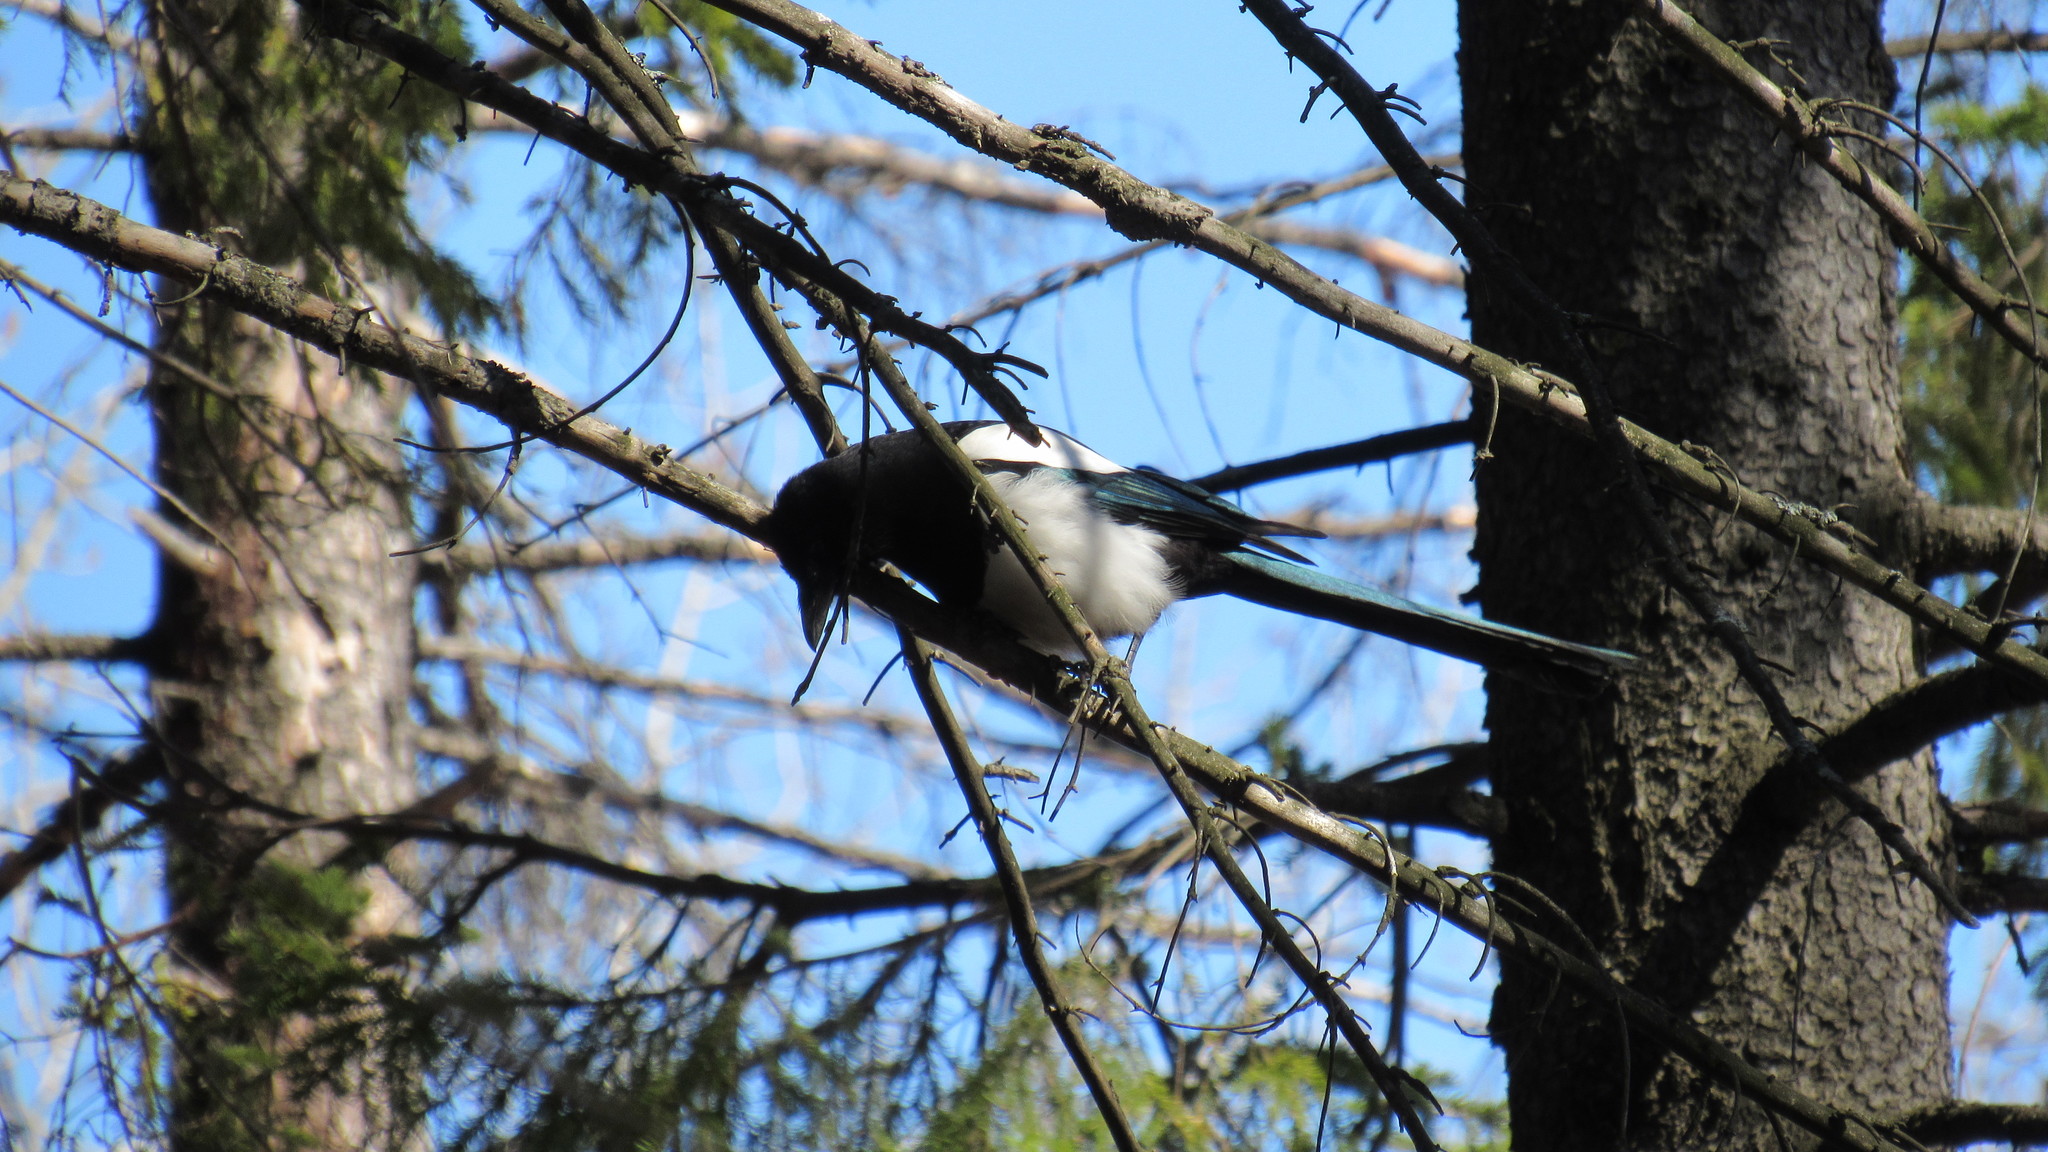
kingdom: Animalia
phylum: Chordata
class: Aves
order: Passeriformes
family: Corvidae
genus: Pica
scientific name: Pica pica
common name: Eurasian magpie
